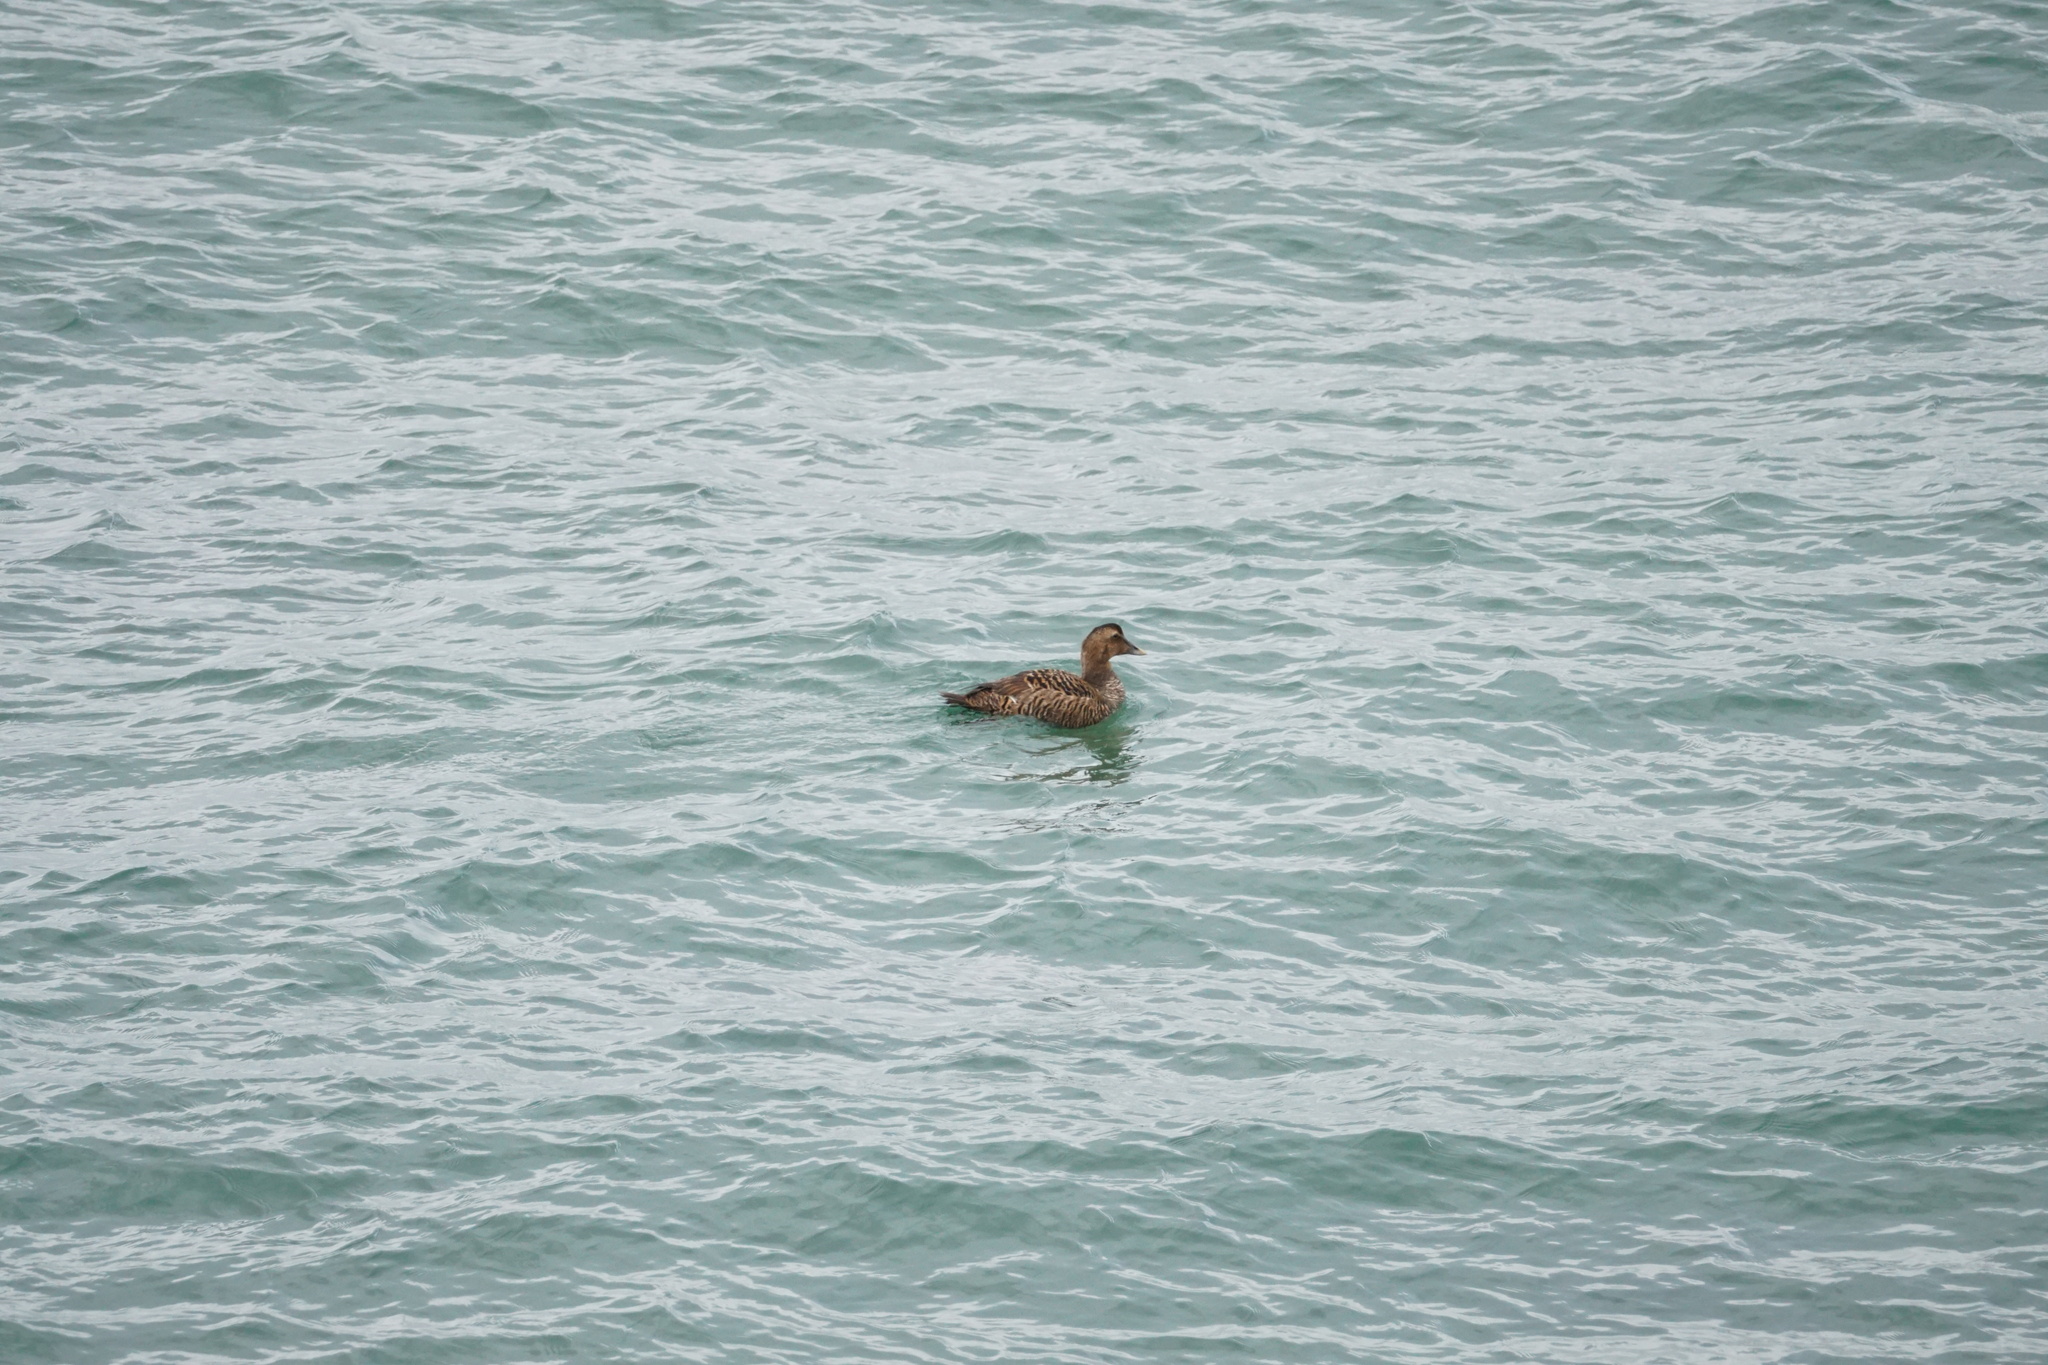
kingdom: Animalia
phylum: Chordata
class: Aves
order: Anseriformes
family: Anatidae
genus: Somateria
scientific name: Somateria mollissima
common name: Common eider
